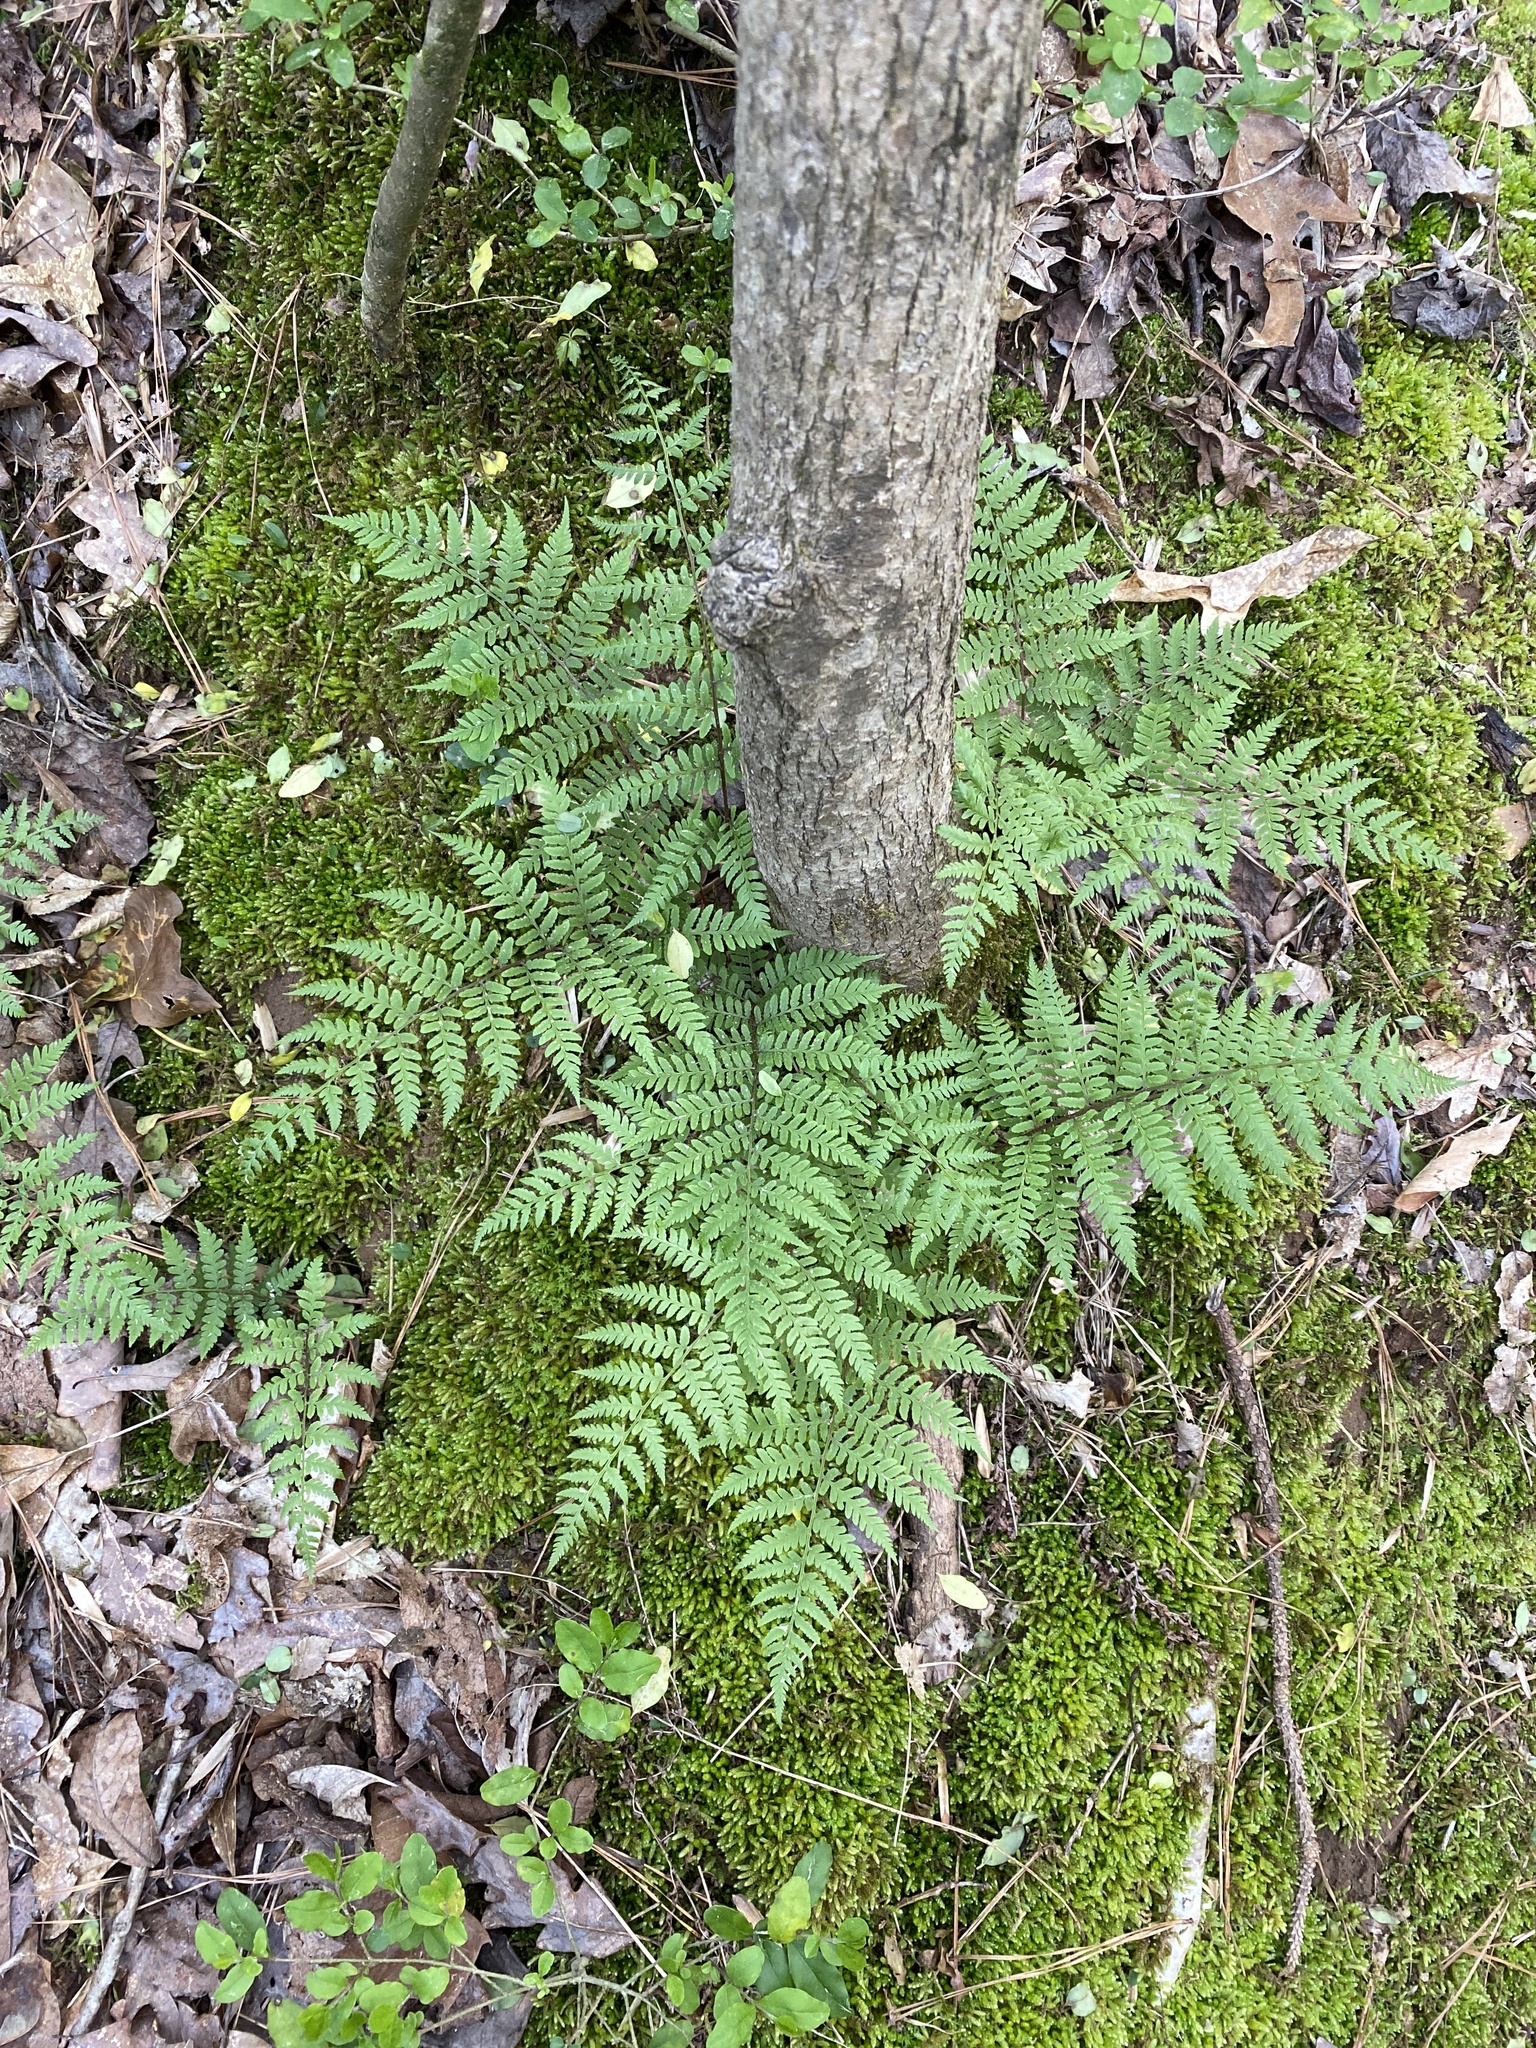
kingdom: Plantae
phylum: Tracheophyta
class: Polypodiopsida
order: Polypodiales
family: Athyriaceae
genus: Athyrium
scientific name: Athyrium asplenioides
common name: Southern lady fern
